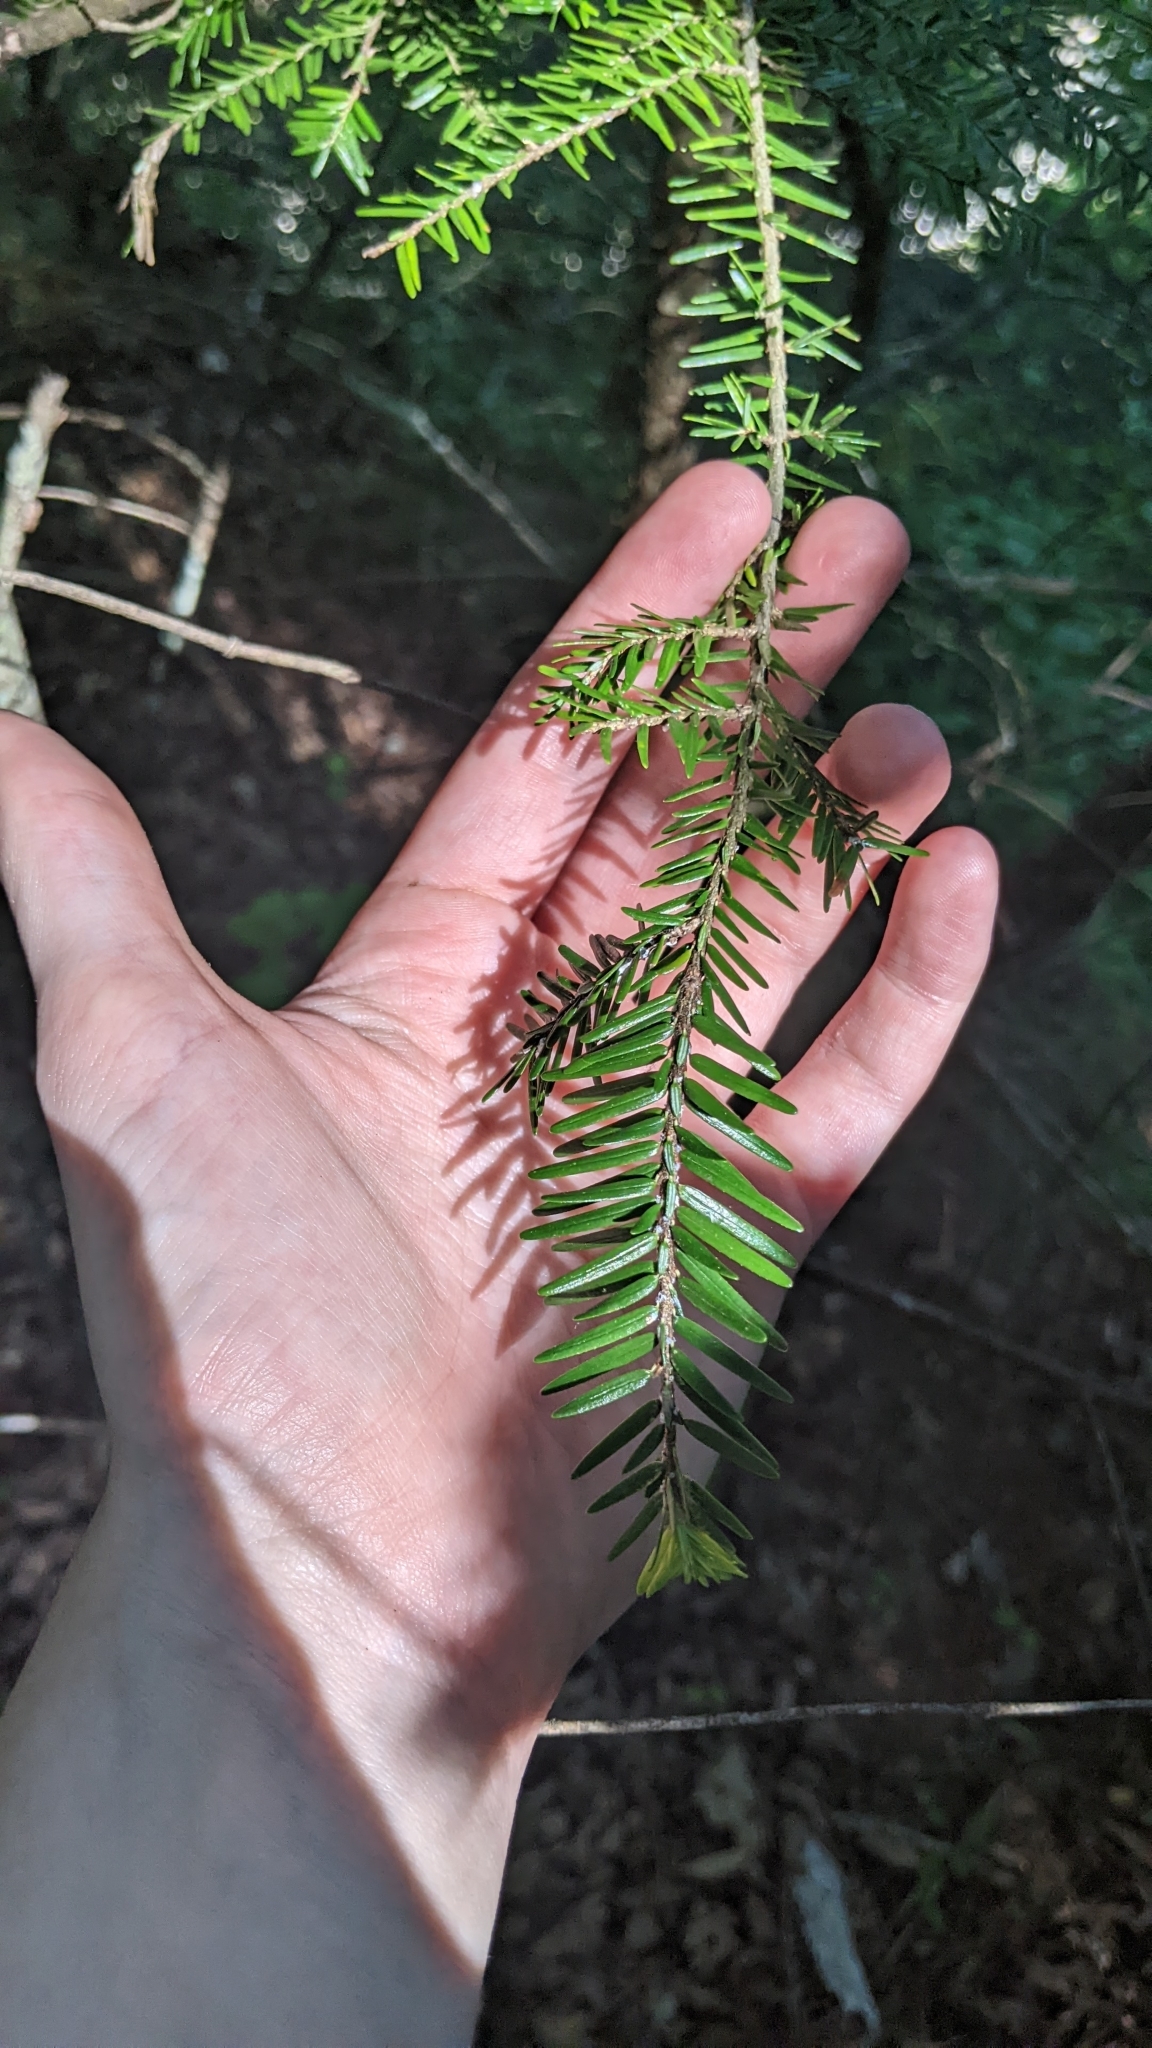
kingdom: Plantae
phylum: Tracheophyta
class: Pinopsida
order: Pinales
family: Pinaceae
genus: Tsuga
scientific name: Tsuga canadensis
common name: Eastern hemlock
